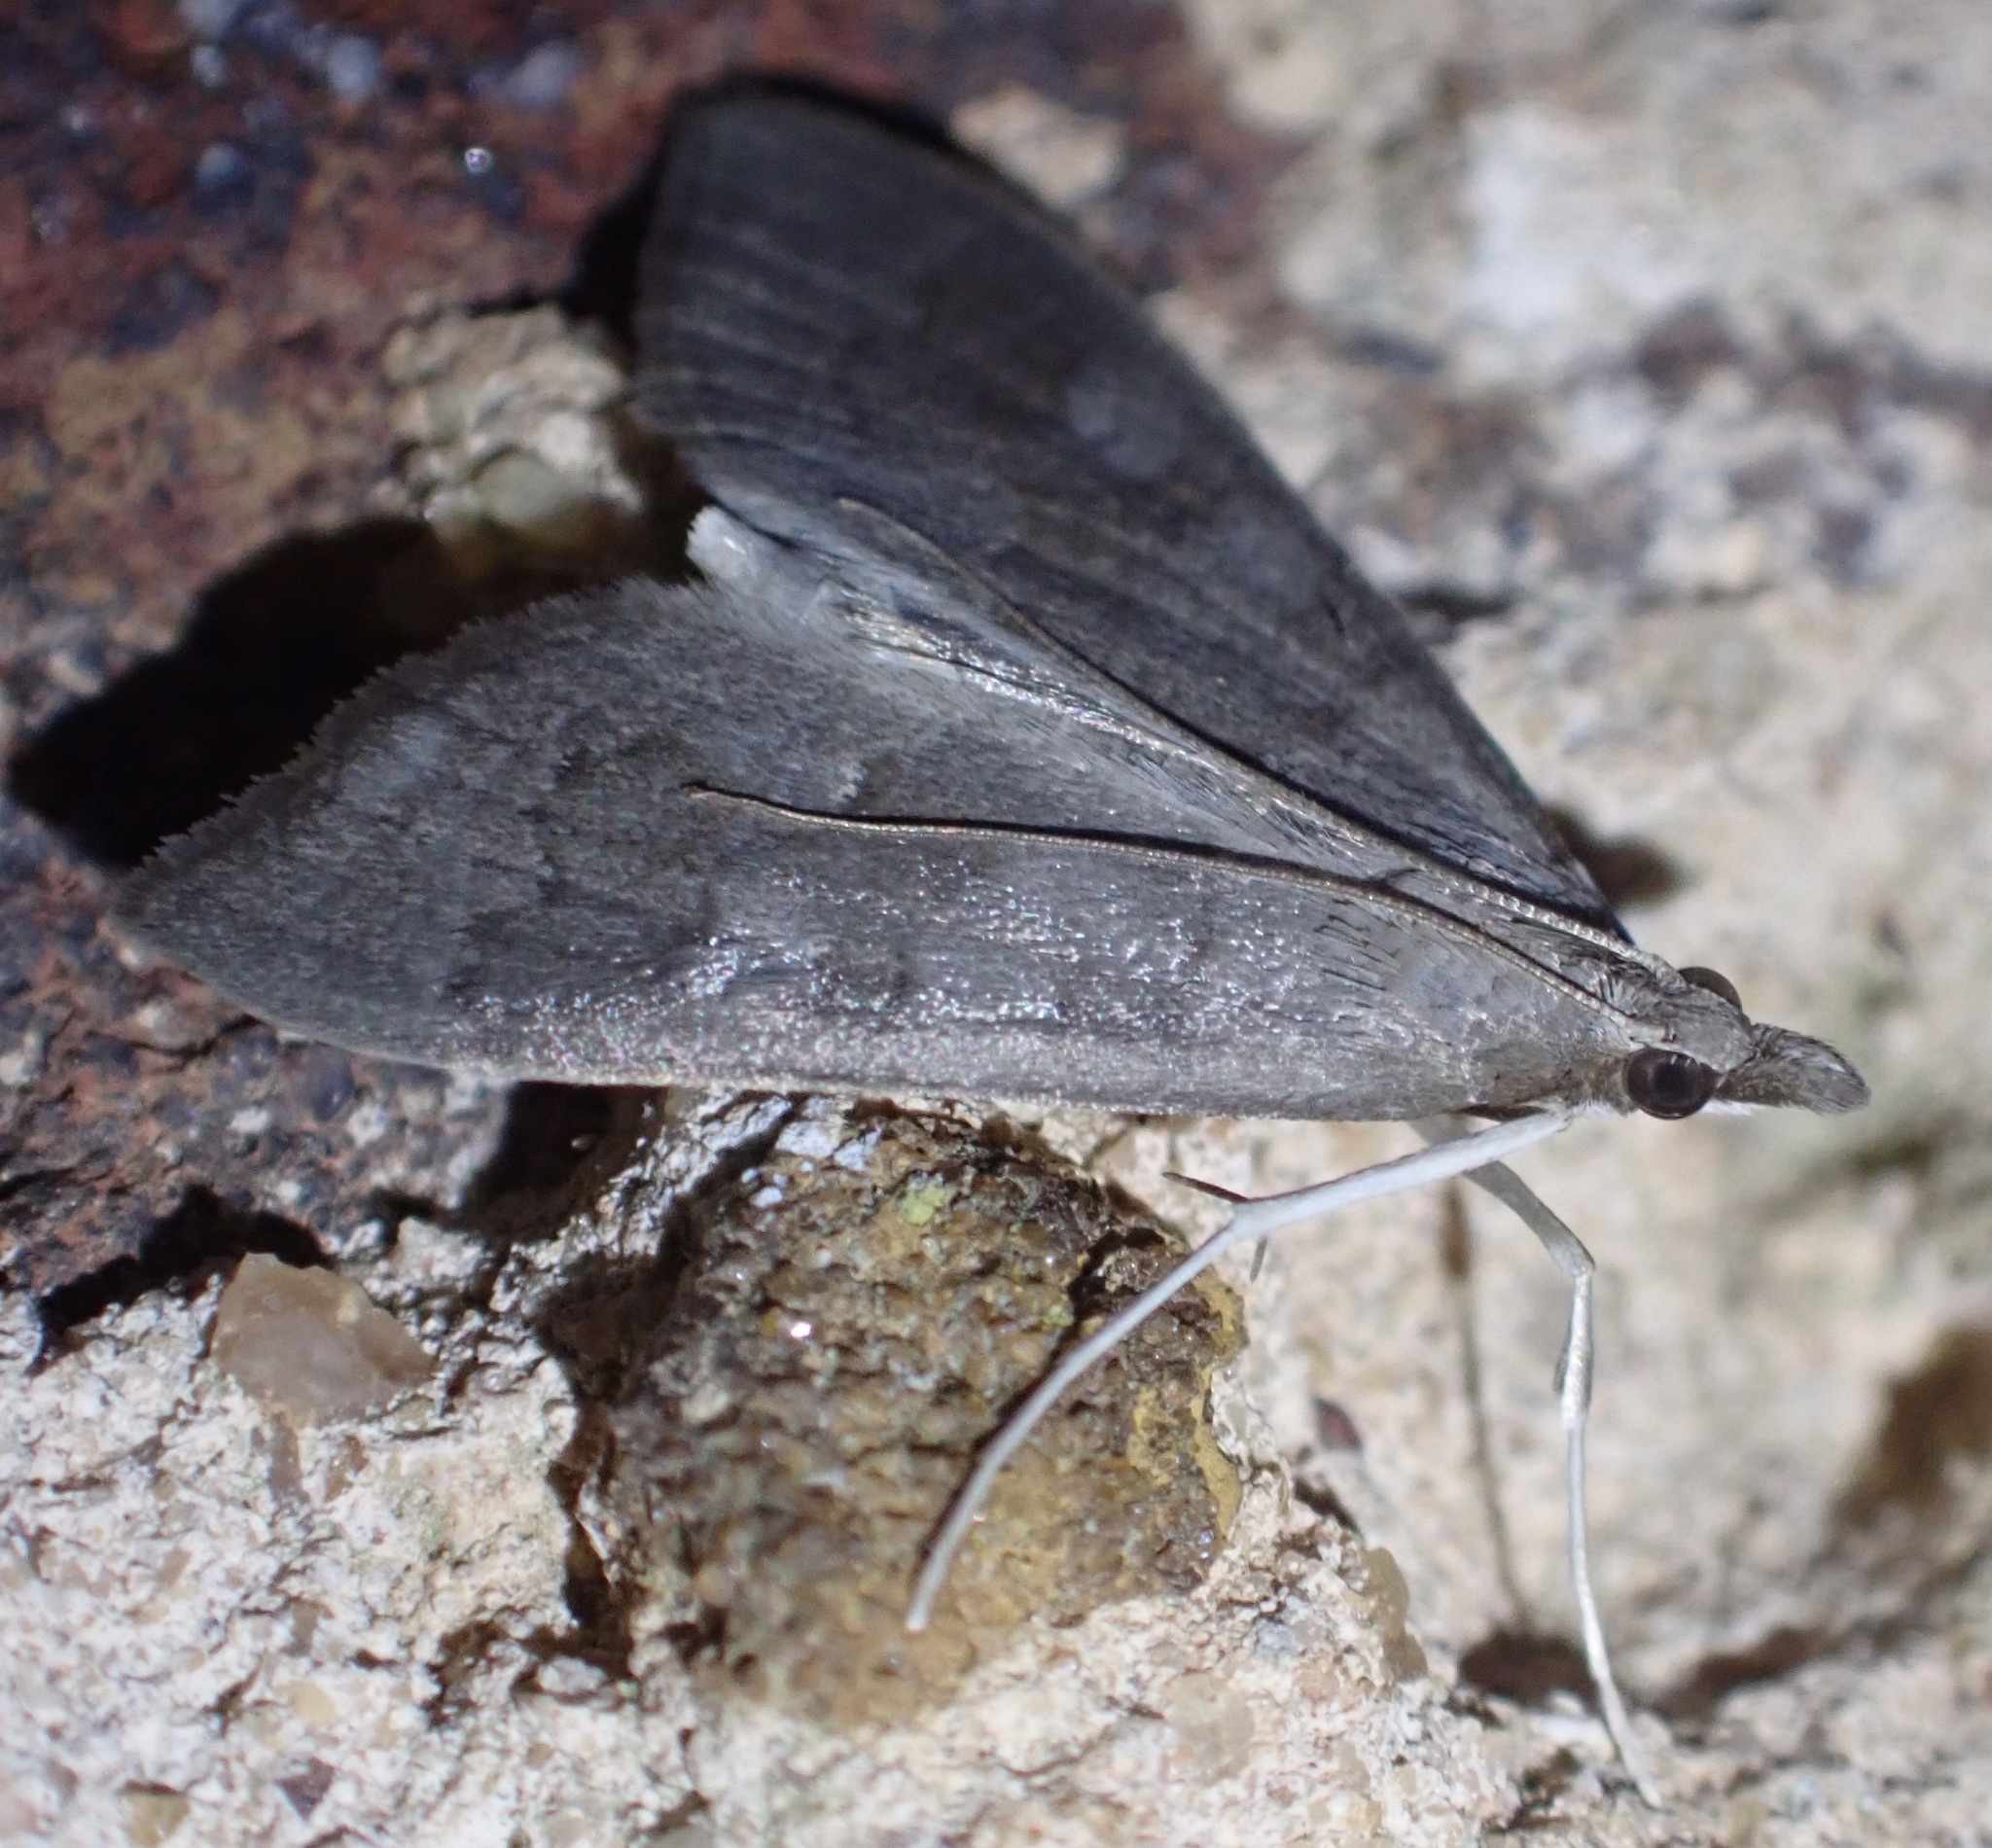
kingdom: Animalia
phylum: Arthropoda
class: Insecta
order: Lepidoptera
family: Crambidae
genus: Mecyna
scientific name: Mecyna asinalis
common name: Coastal pearl
